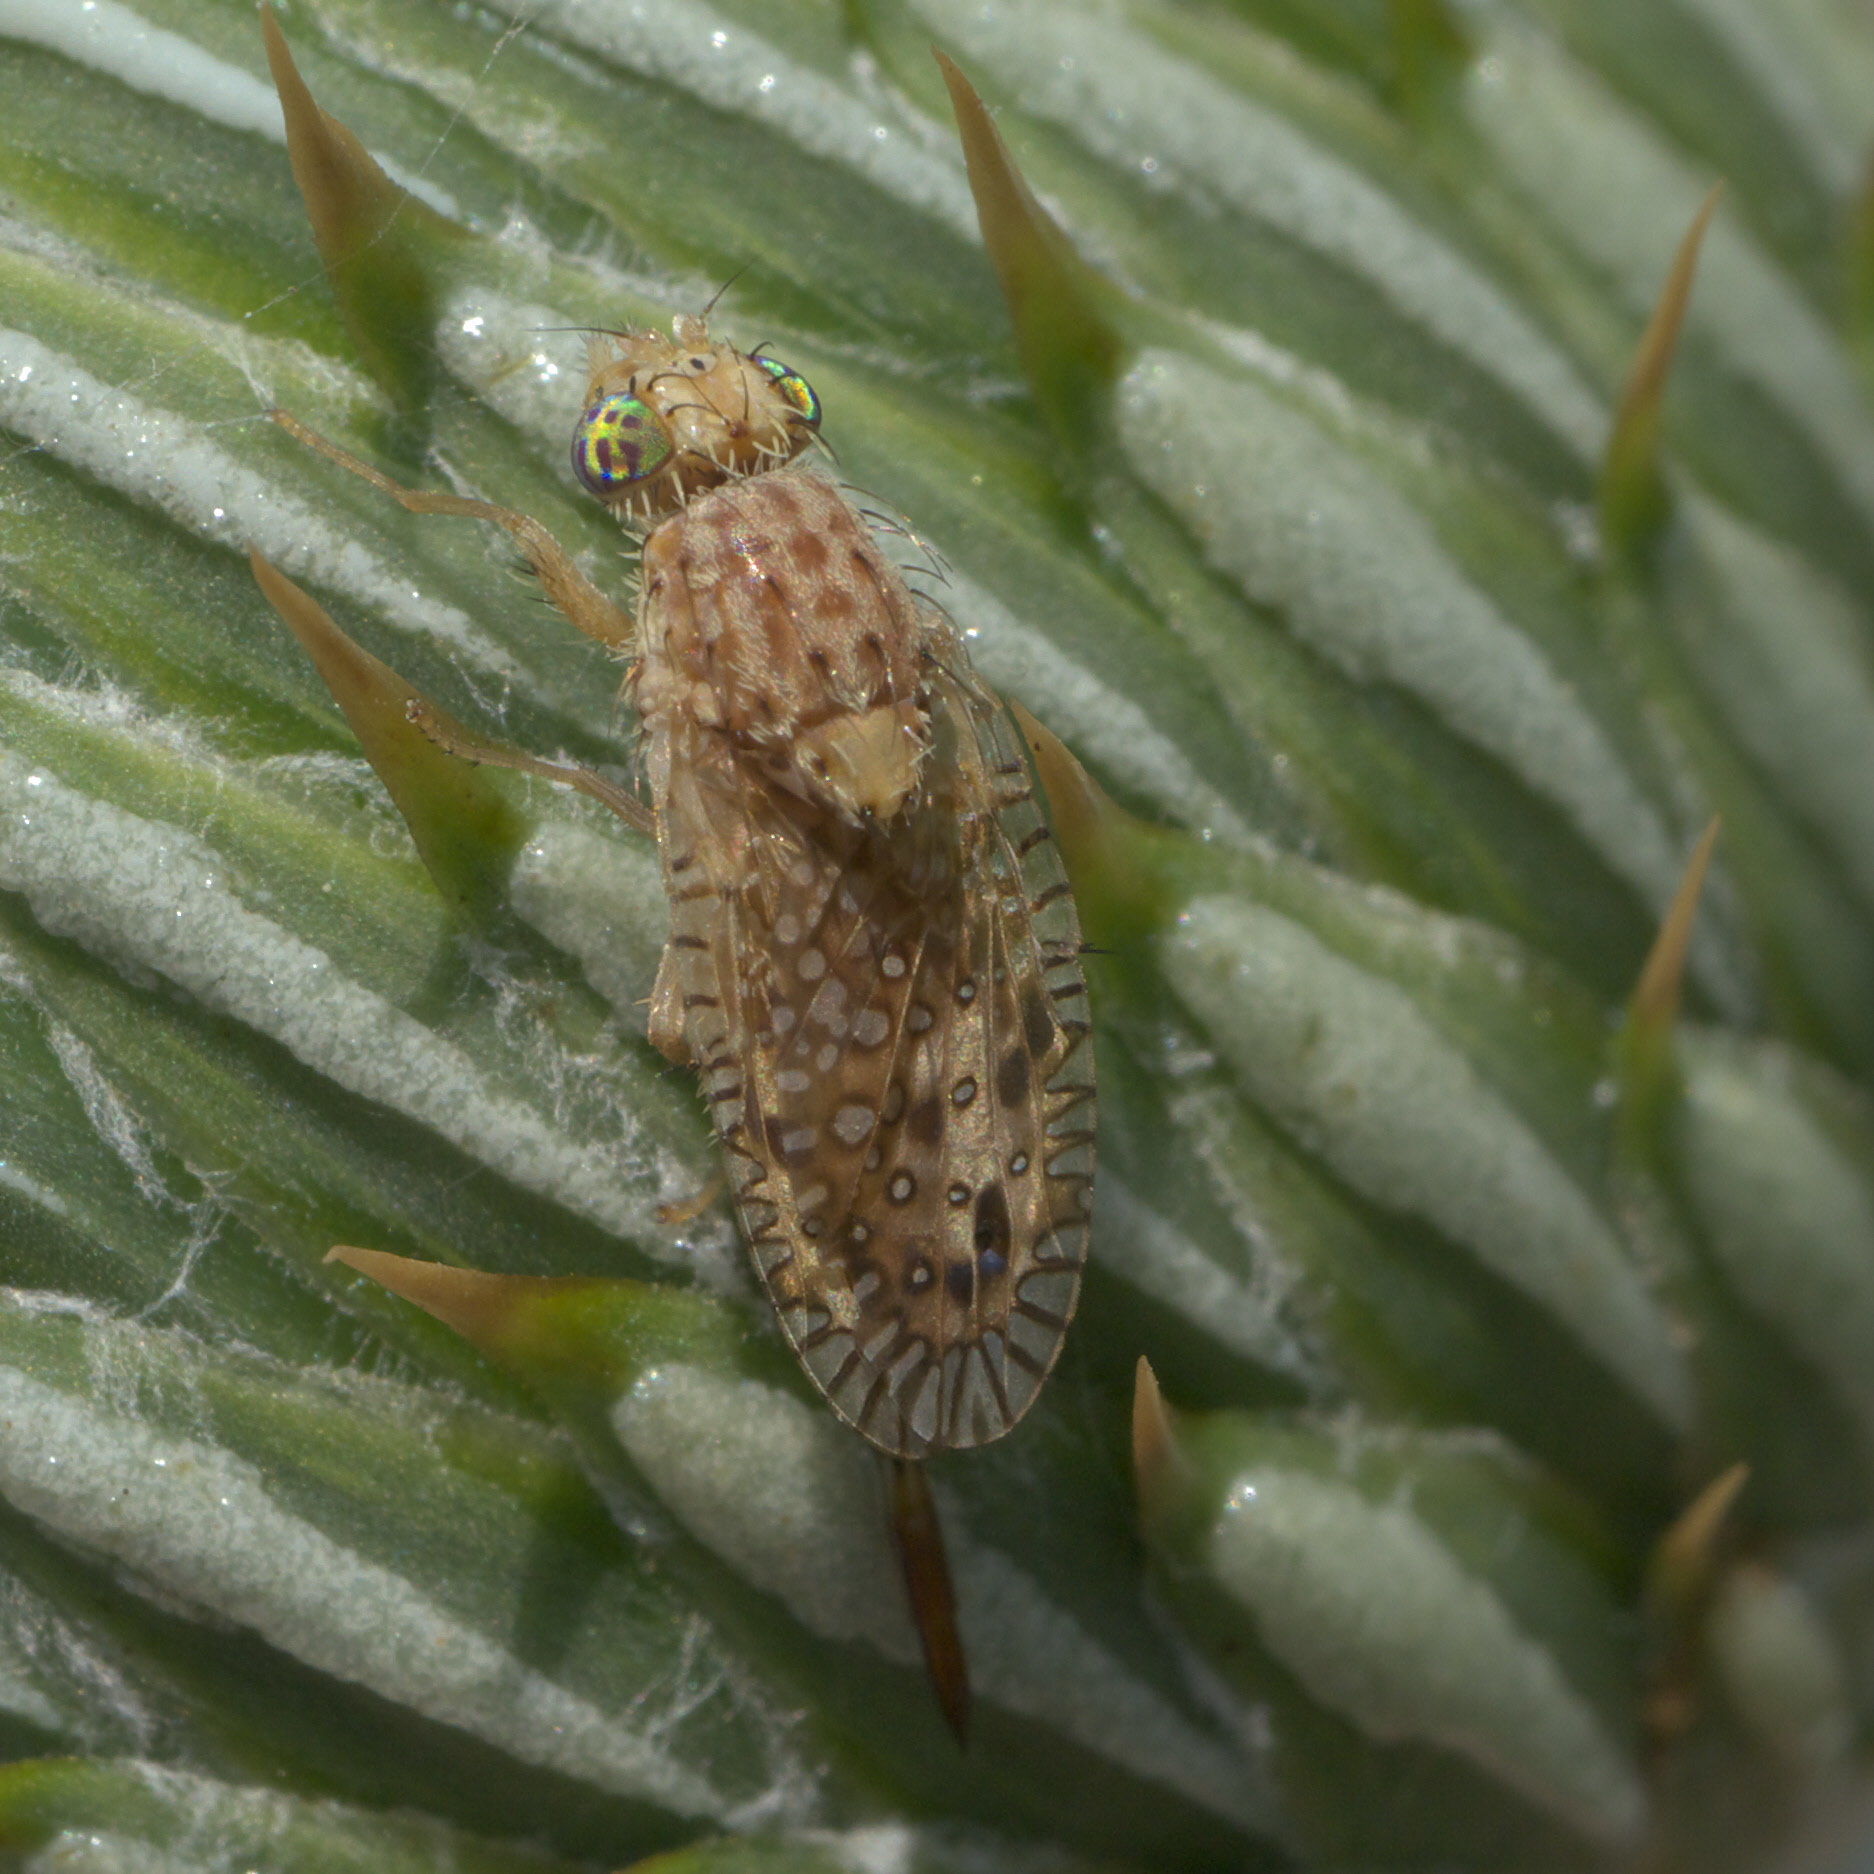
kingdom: Animalia
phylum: Arthropoda
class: Insecta
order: Diptera
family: Tephritidae
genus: Paracantha
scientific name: Paracantha culta
